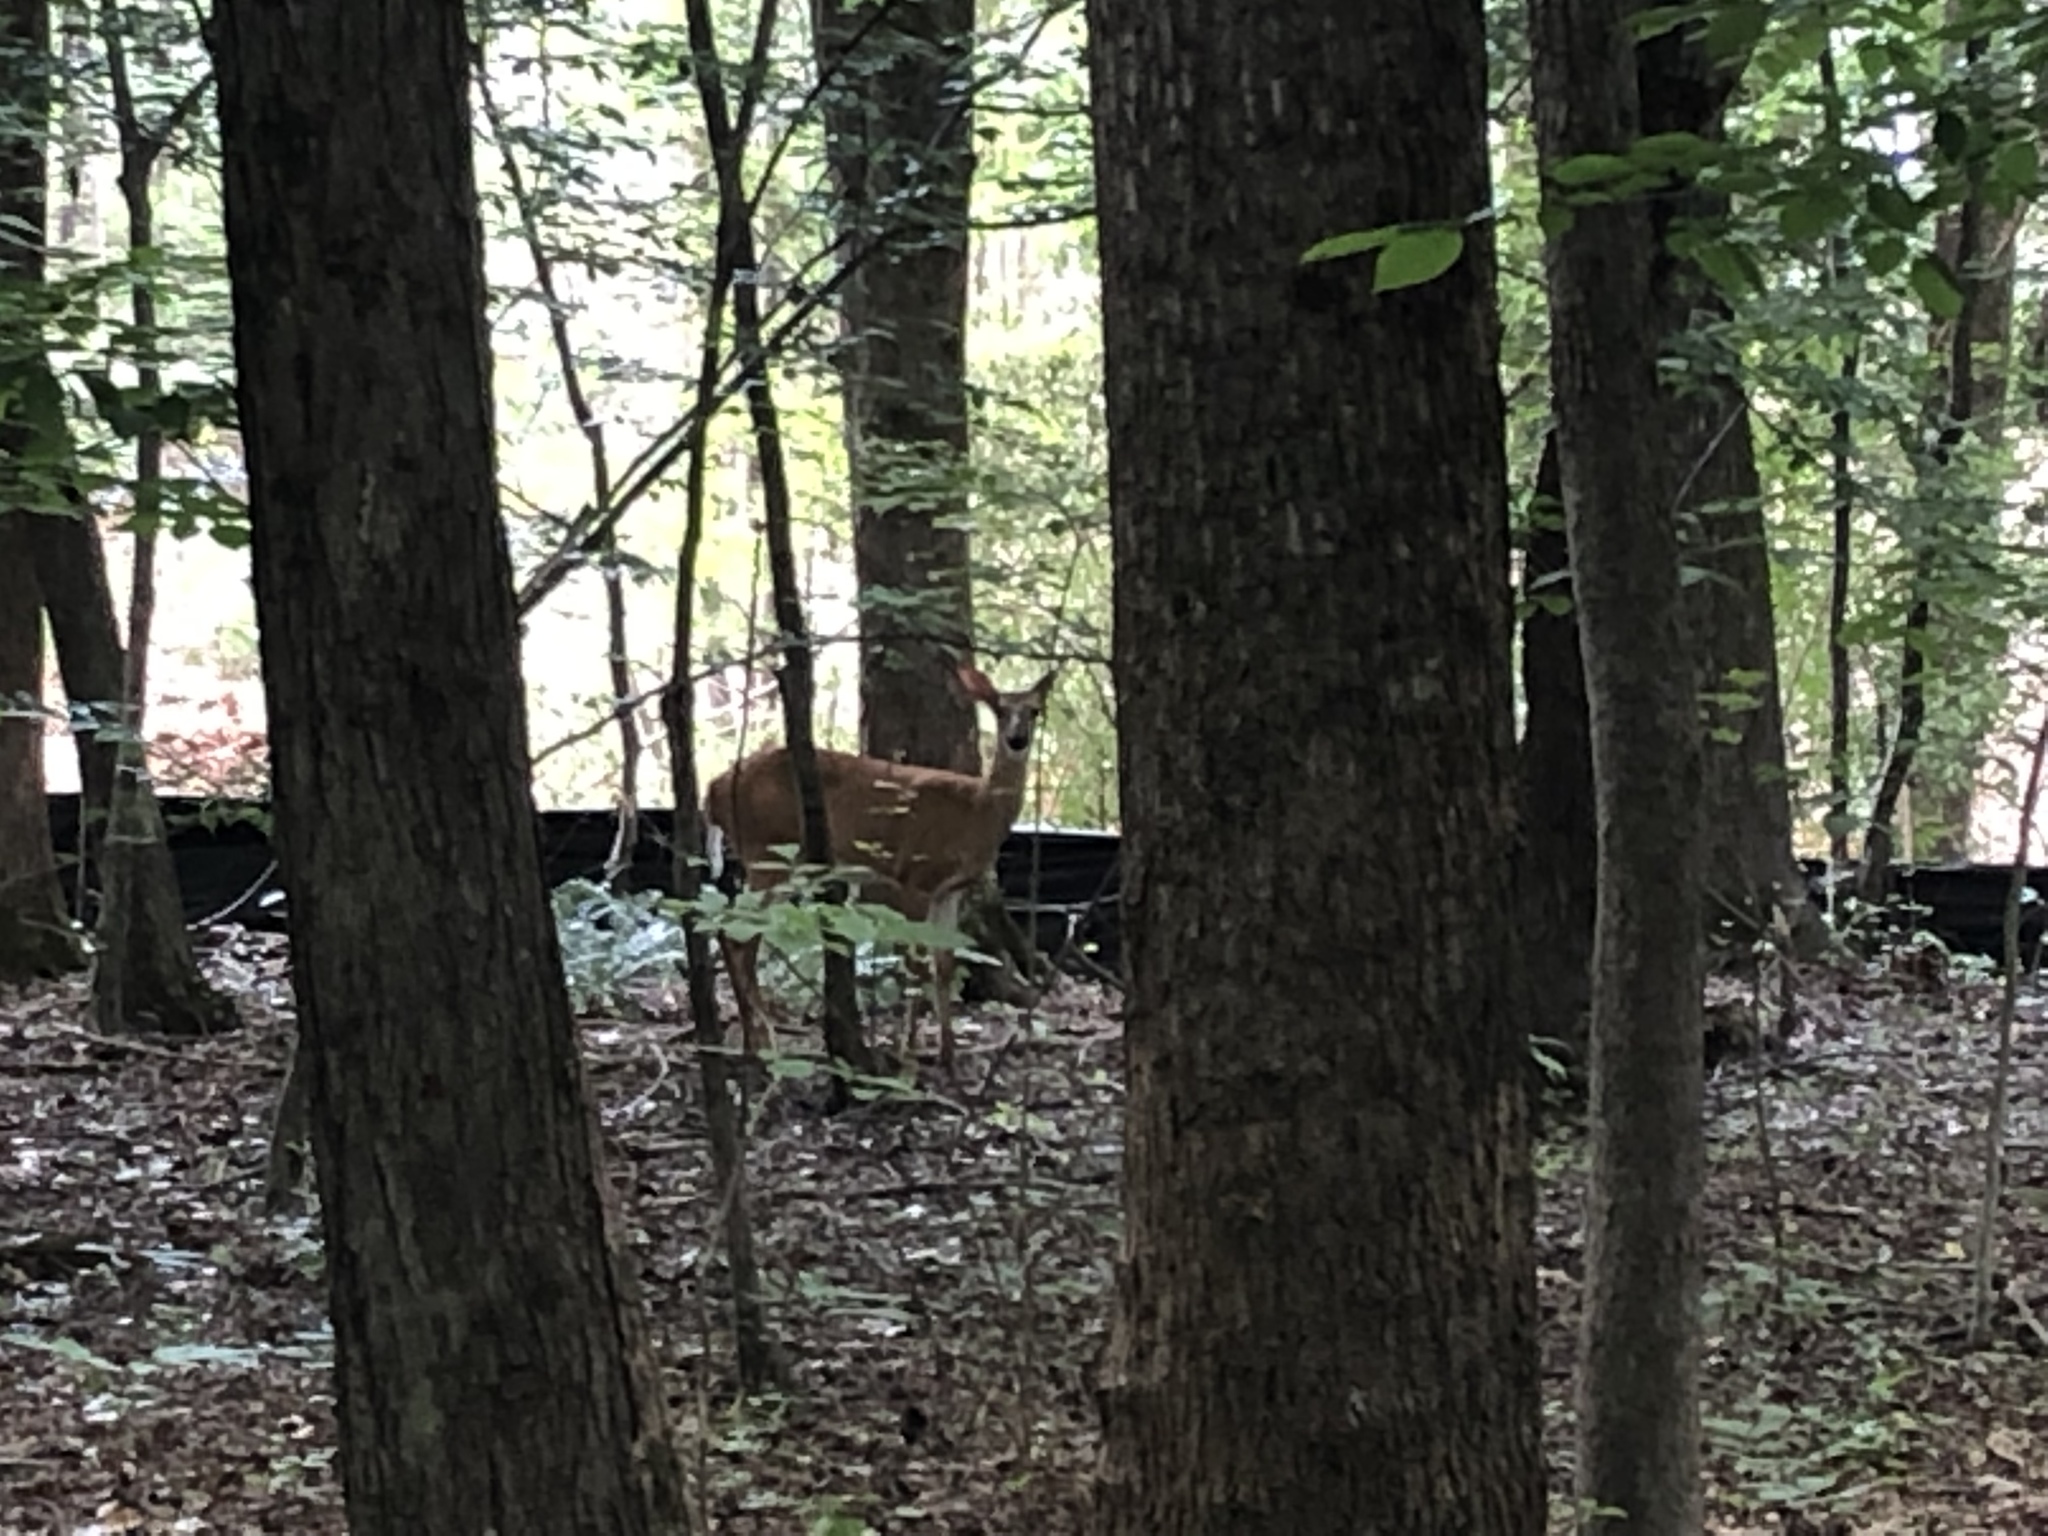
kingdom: Animalia
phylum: Chordata
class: Mammalia
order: Artiodactyla
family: Cervidae
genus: Odocoileus
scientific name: Odocoileus virginianus
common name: White-tailed deer
